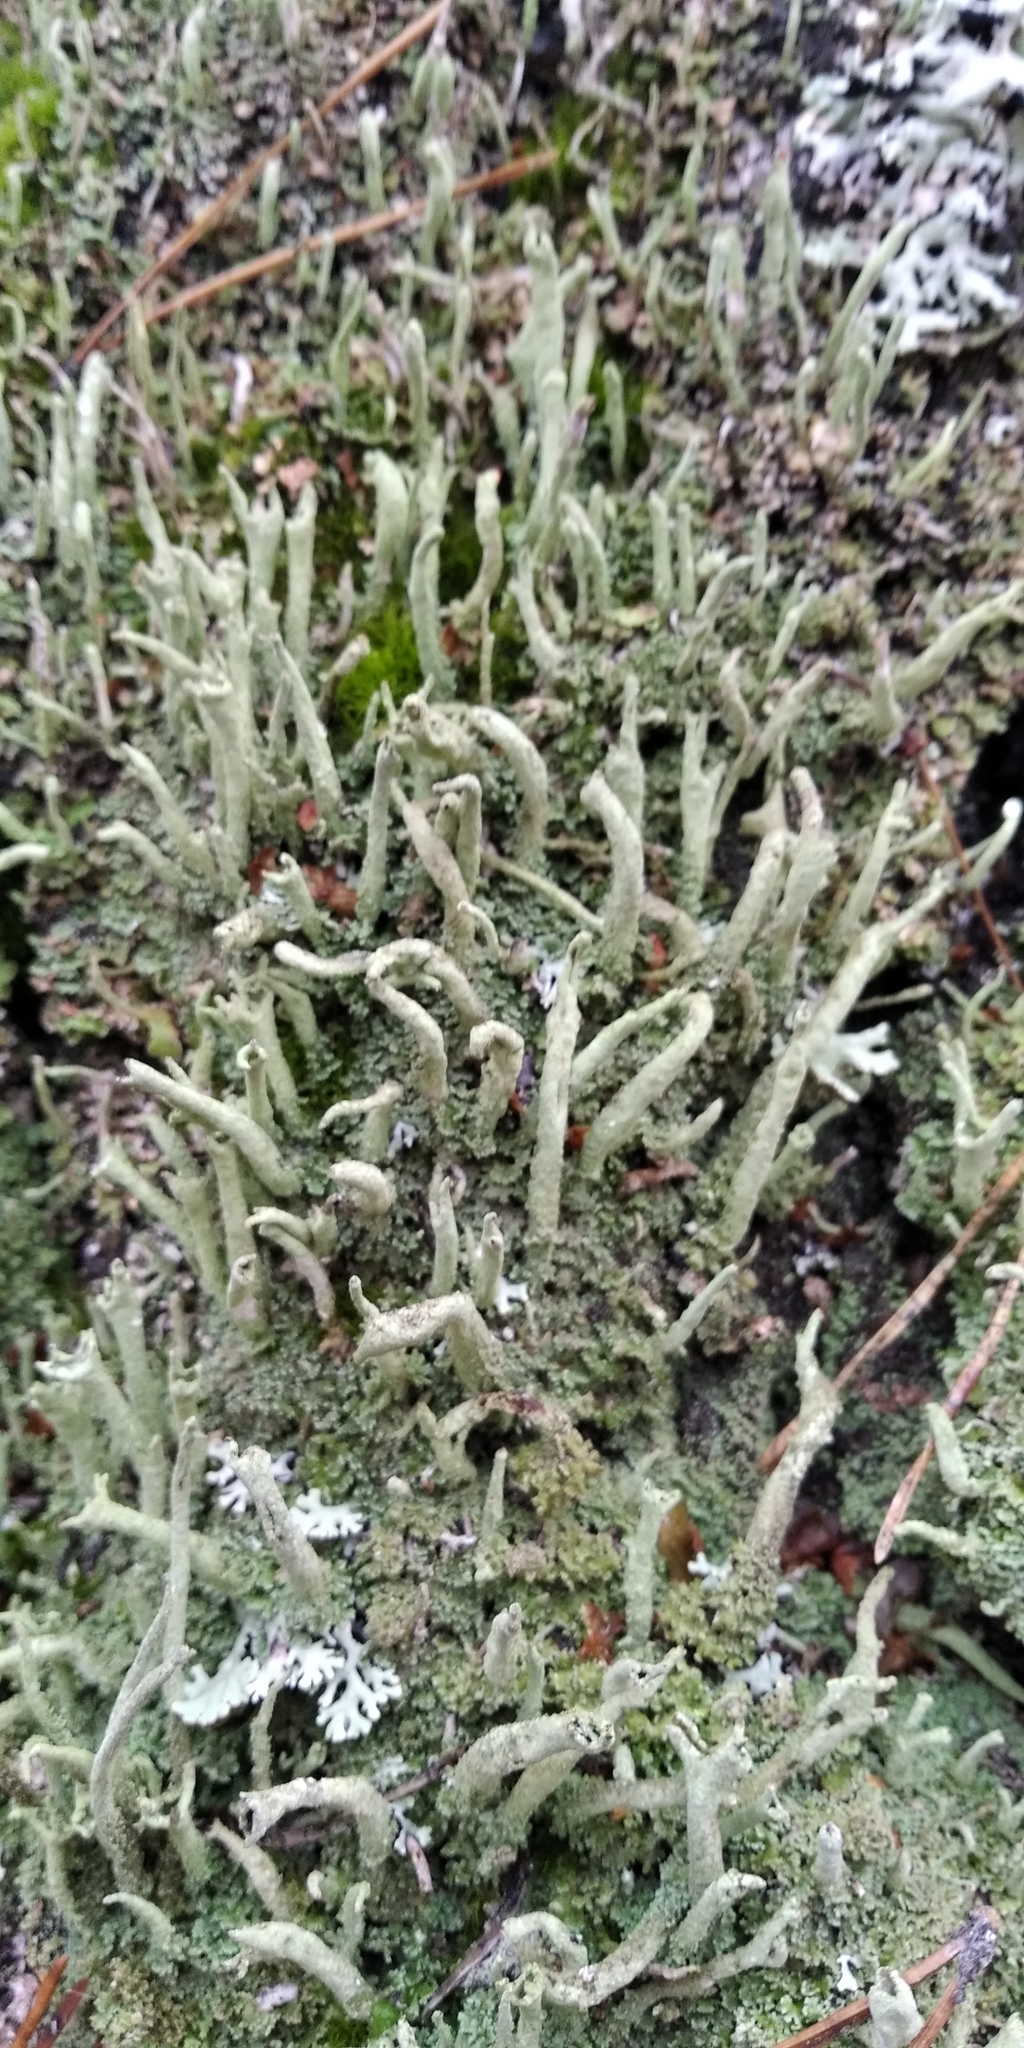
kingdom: Fungi
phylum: Ascomycota
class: Lecanoromycetes
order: Lecanorales
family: Cladoniaceae
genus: Cladonia
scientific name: Cladonia coniocraea
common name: Common powderhorn
